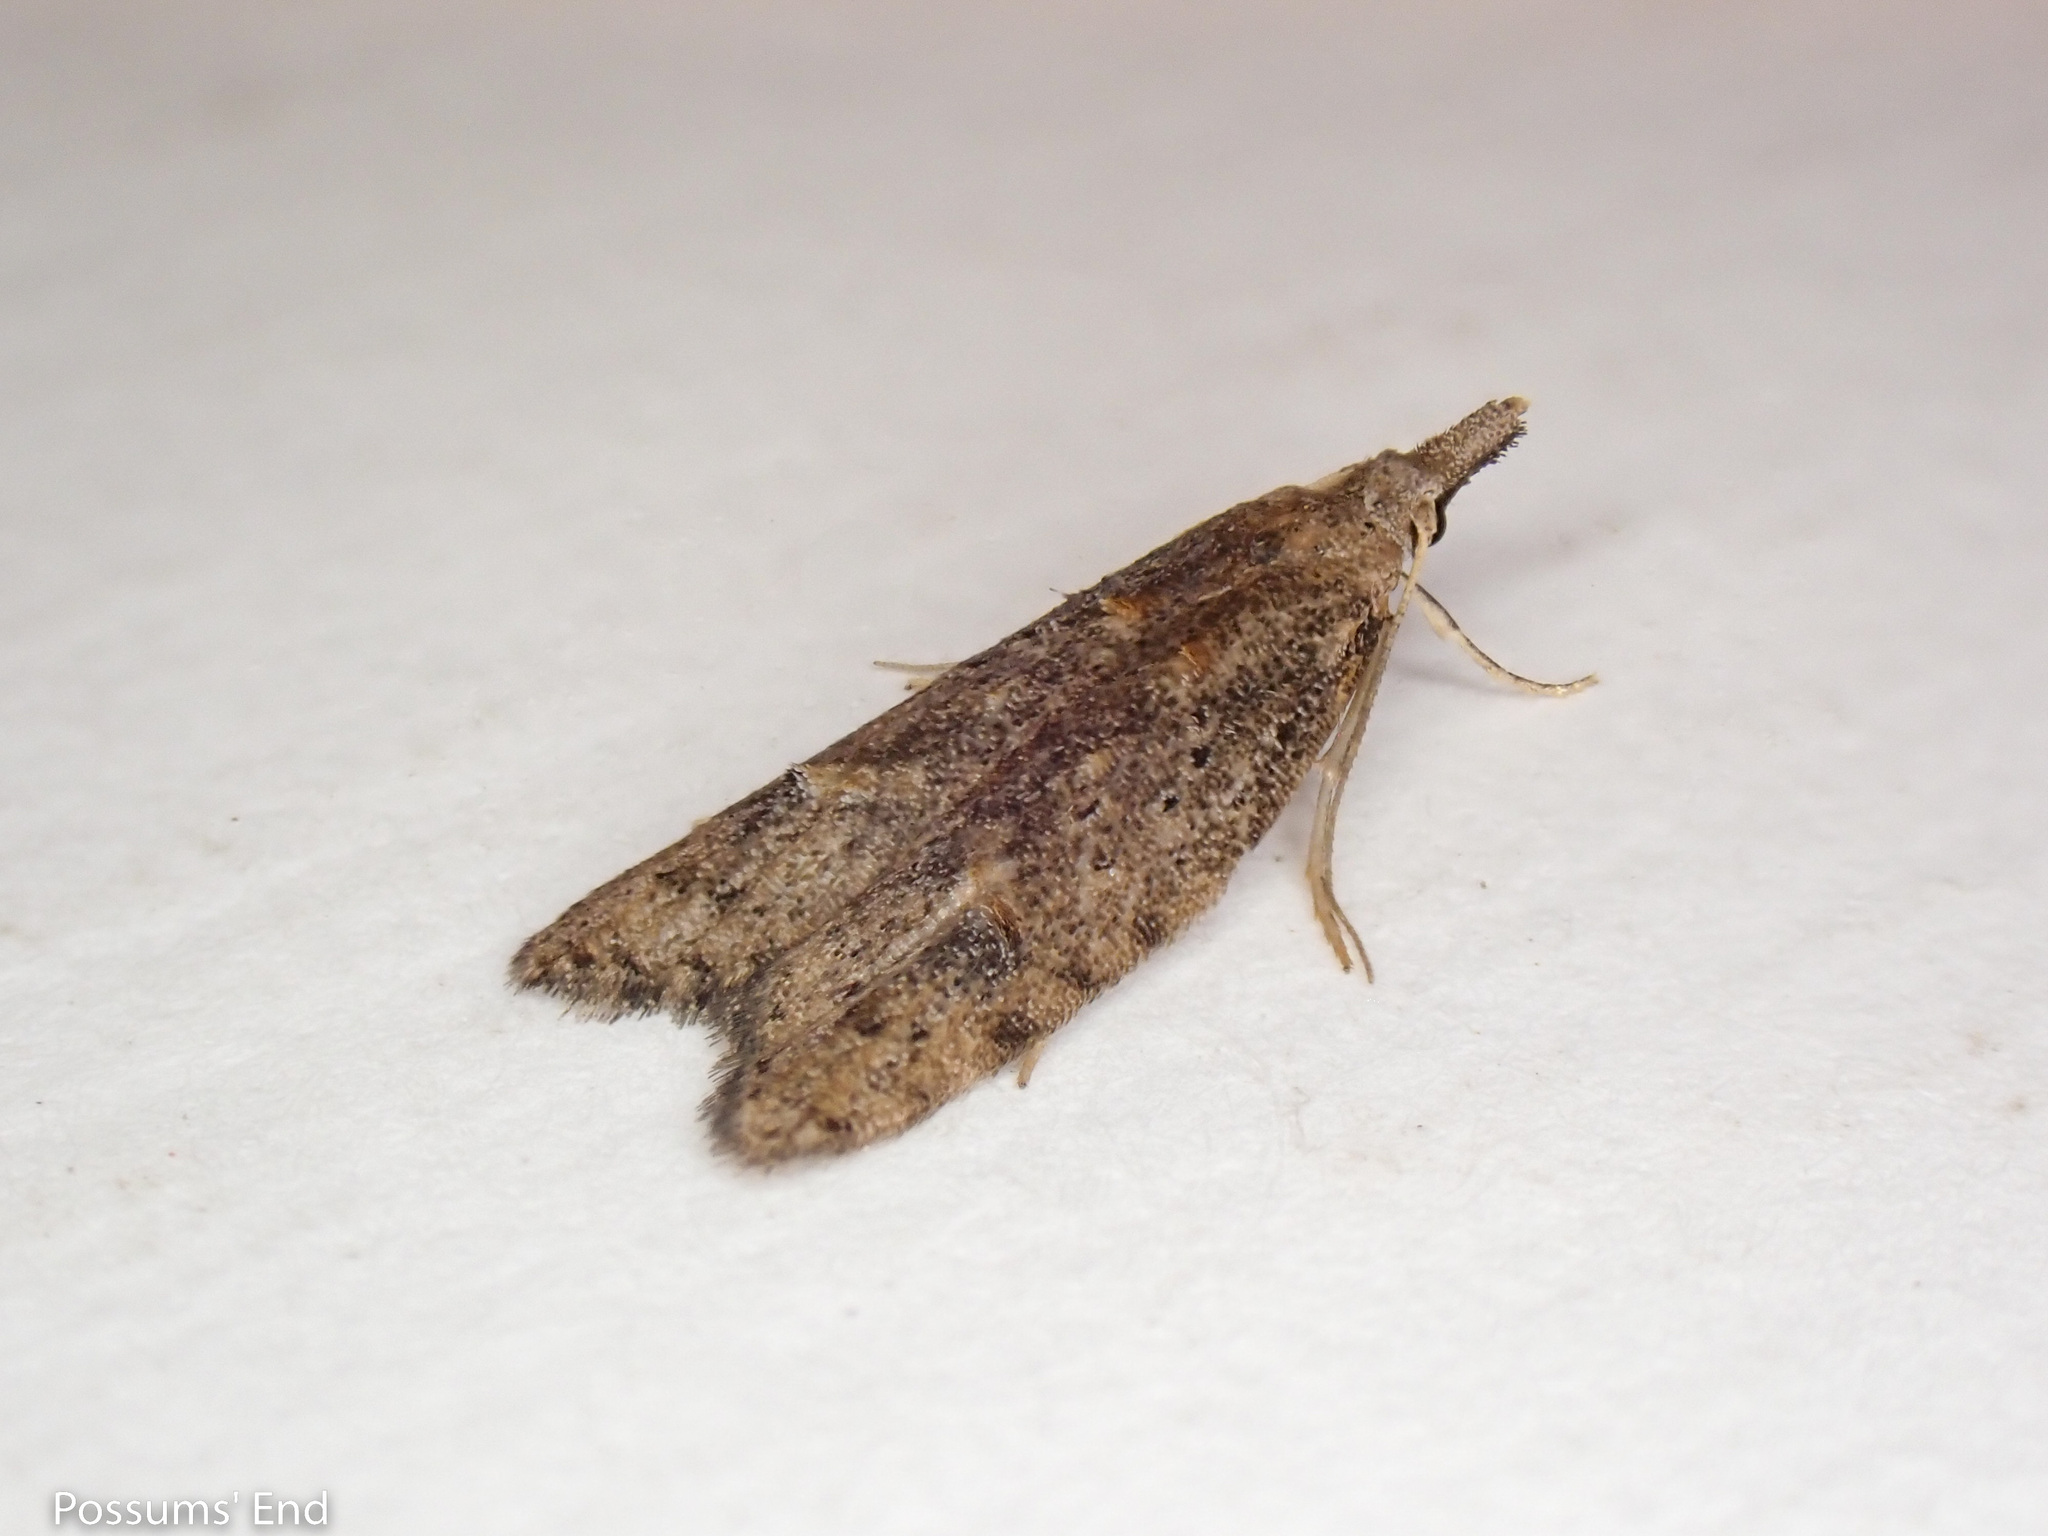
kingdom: Animalia
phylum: Arthropoda
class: Insecta
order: Lepidoptera
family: Carposinidae
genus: Carposina
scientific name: Carposina rubophaga
